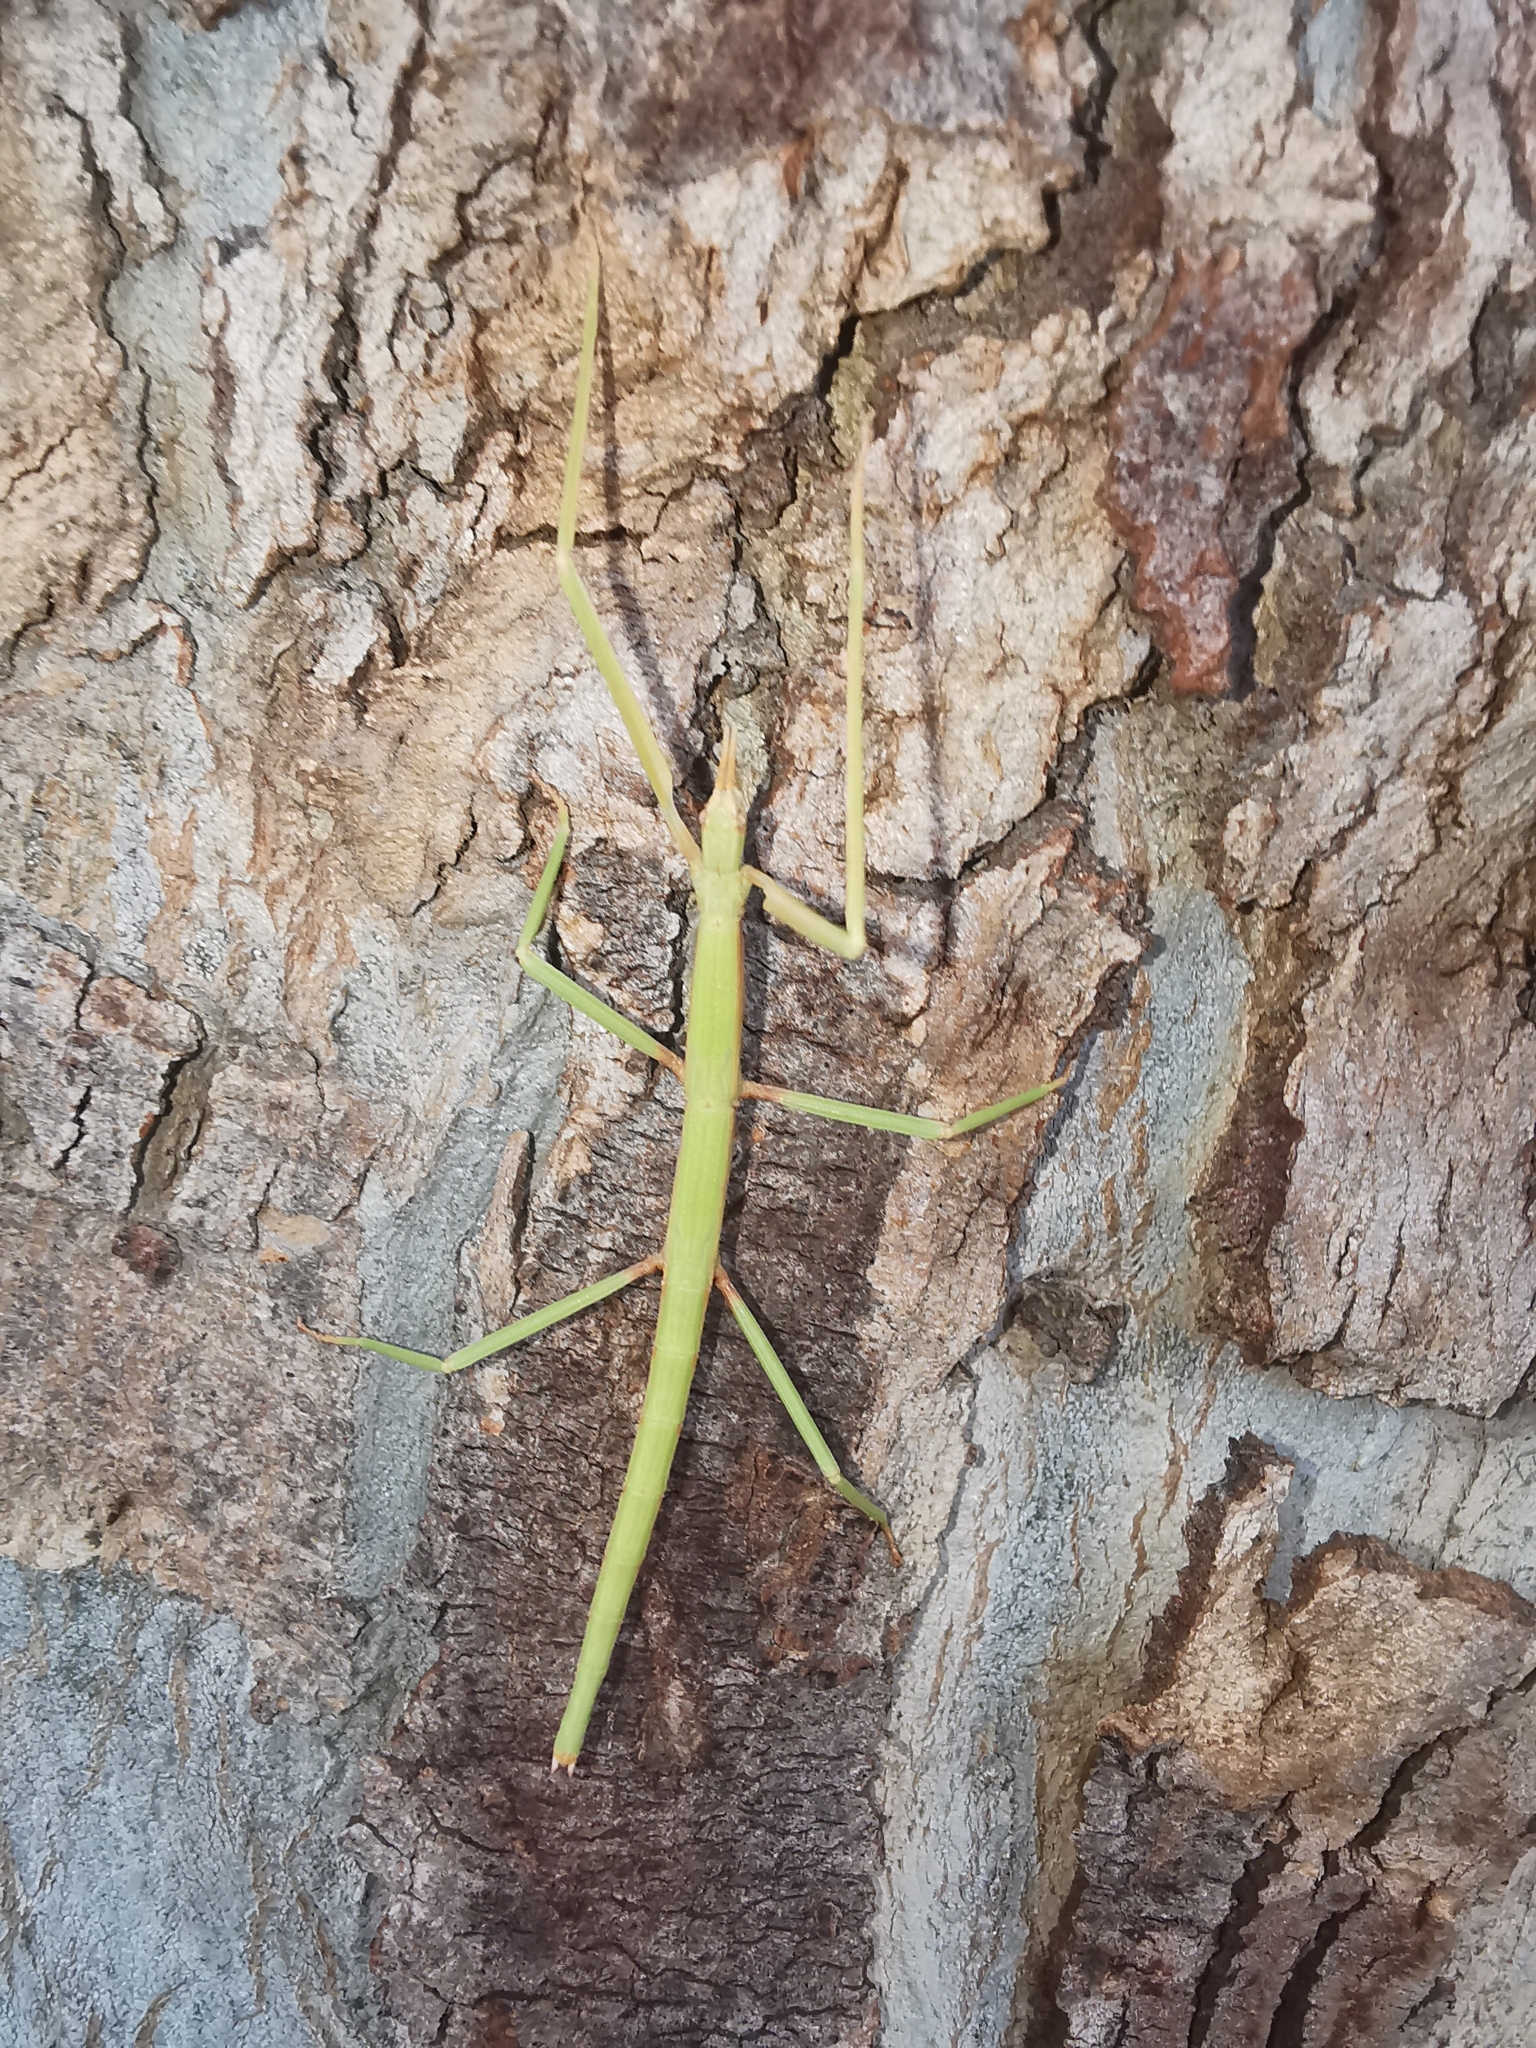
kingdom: Animalia
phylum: Arthropoda
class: Insecta
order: Phasmida
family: Bacillidae
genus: Bacillus
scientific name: Bacillus atticus
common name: Greek stick-insect
